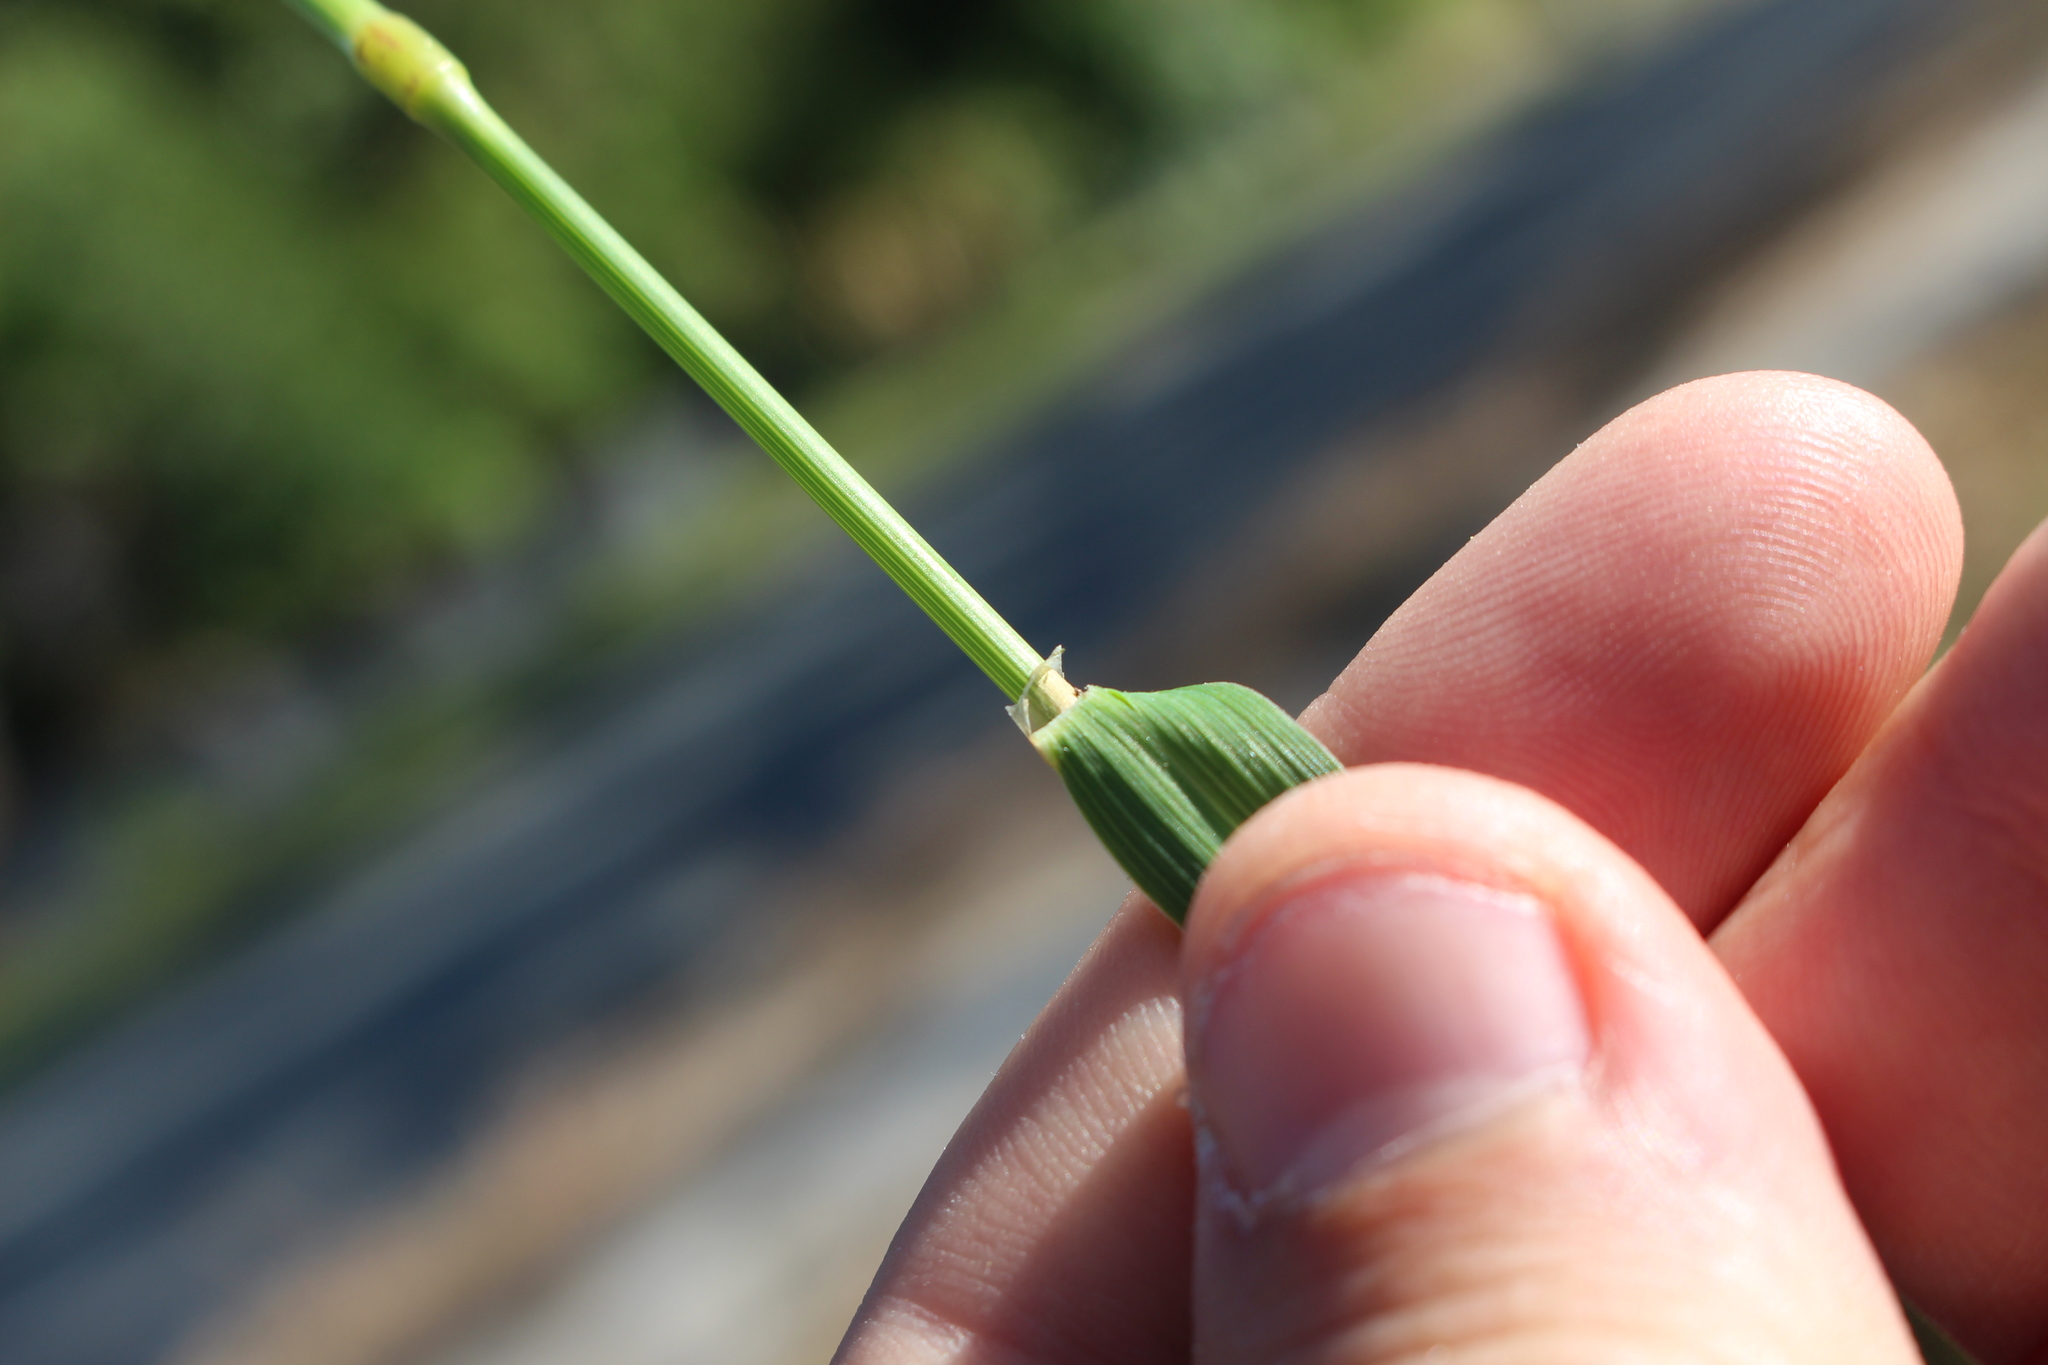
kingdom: Plantae
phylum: Tracheophyta
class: Liliopsida
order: Poales
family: Poaceae
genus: Phleum
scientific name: Phleum pratense
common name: Timothy grass
